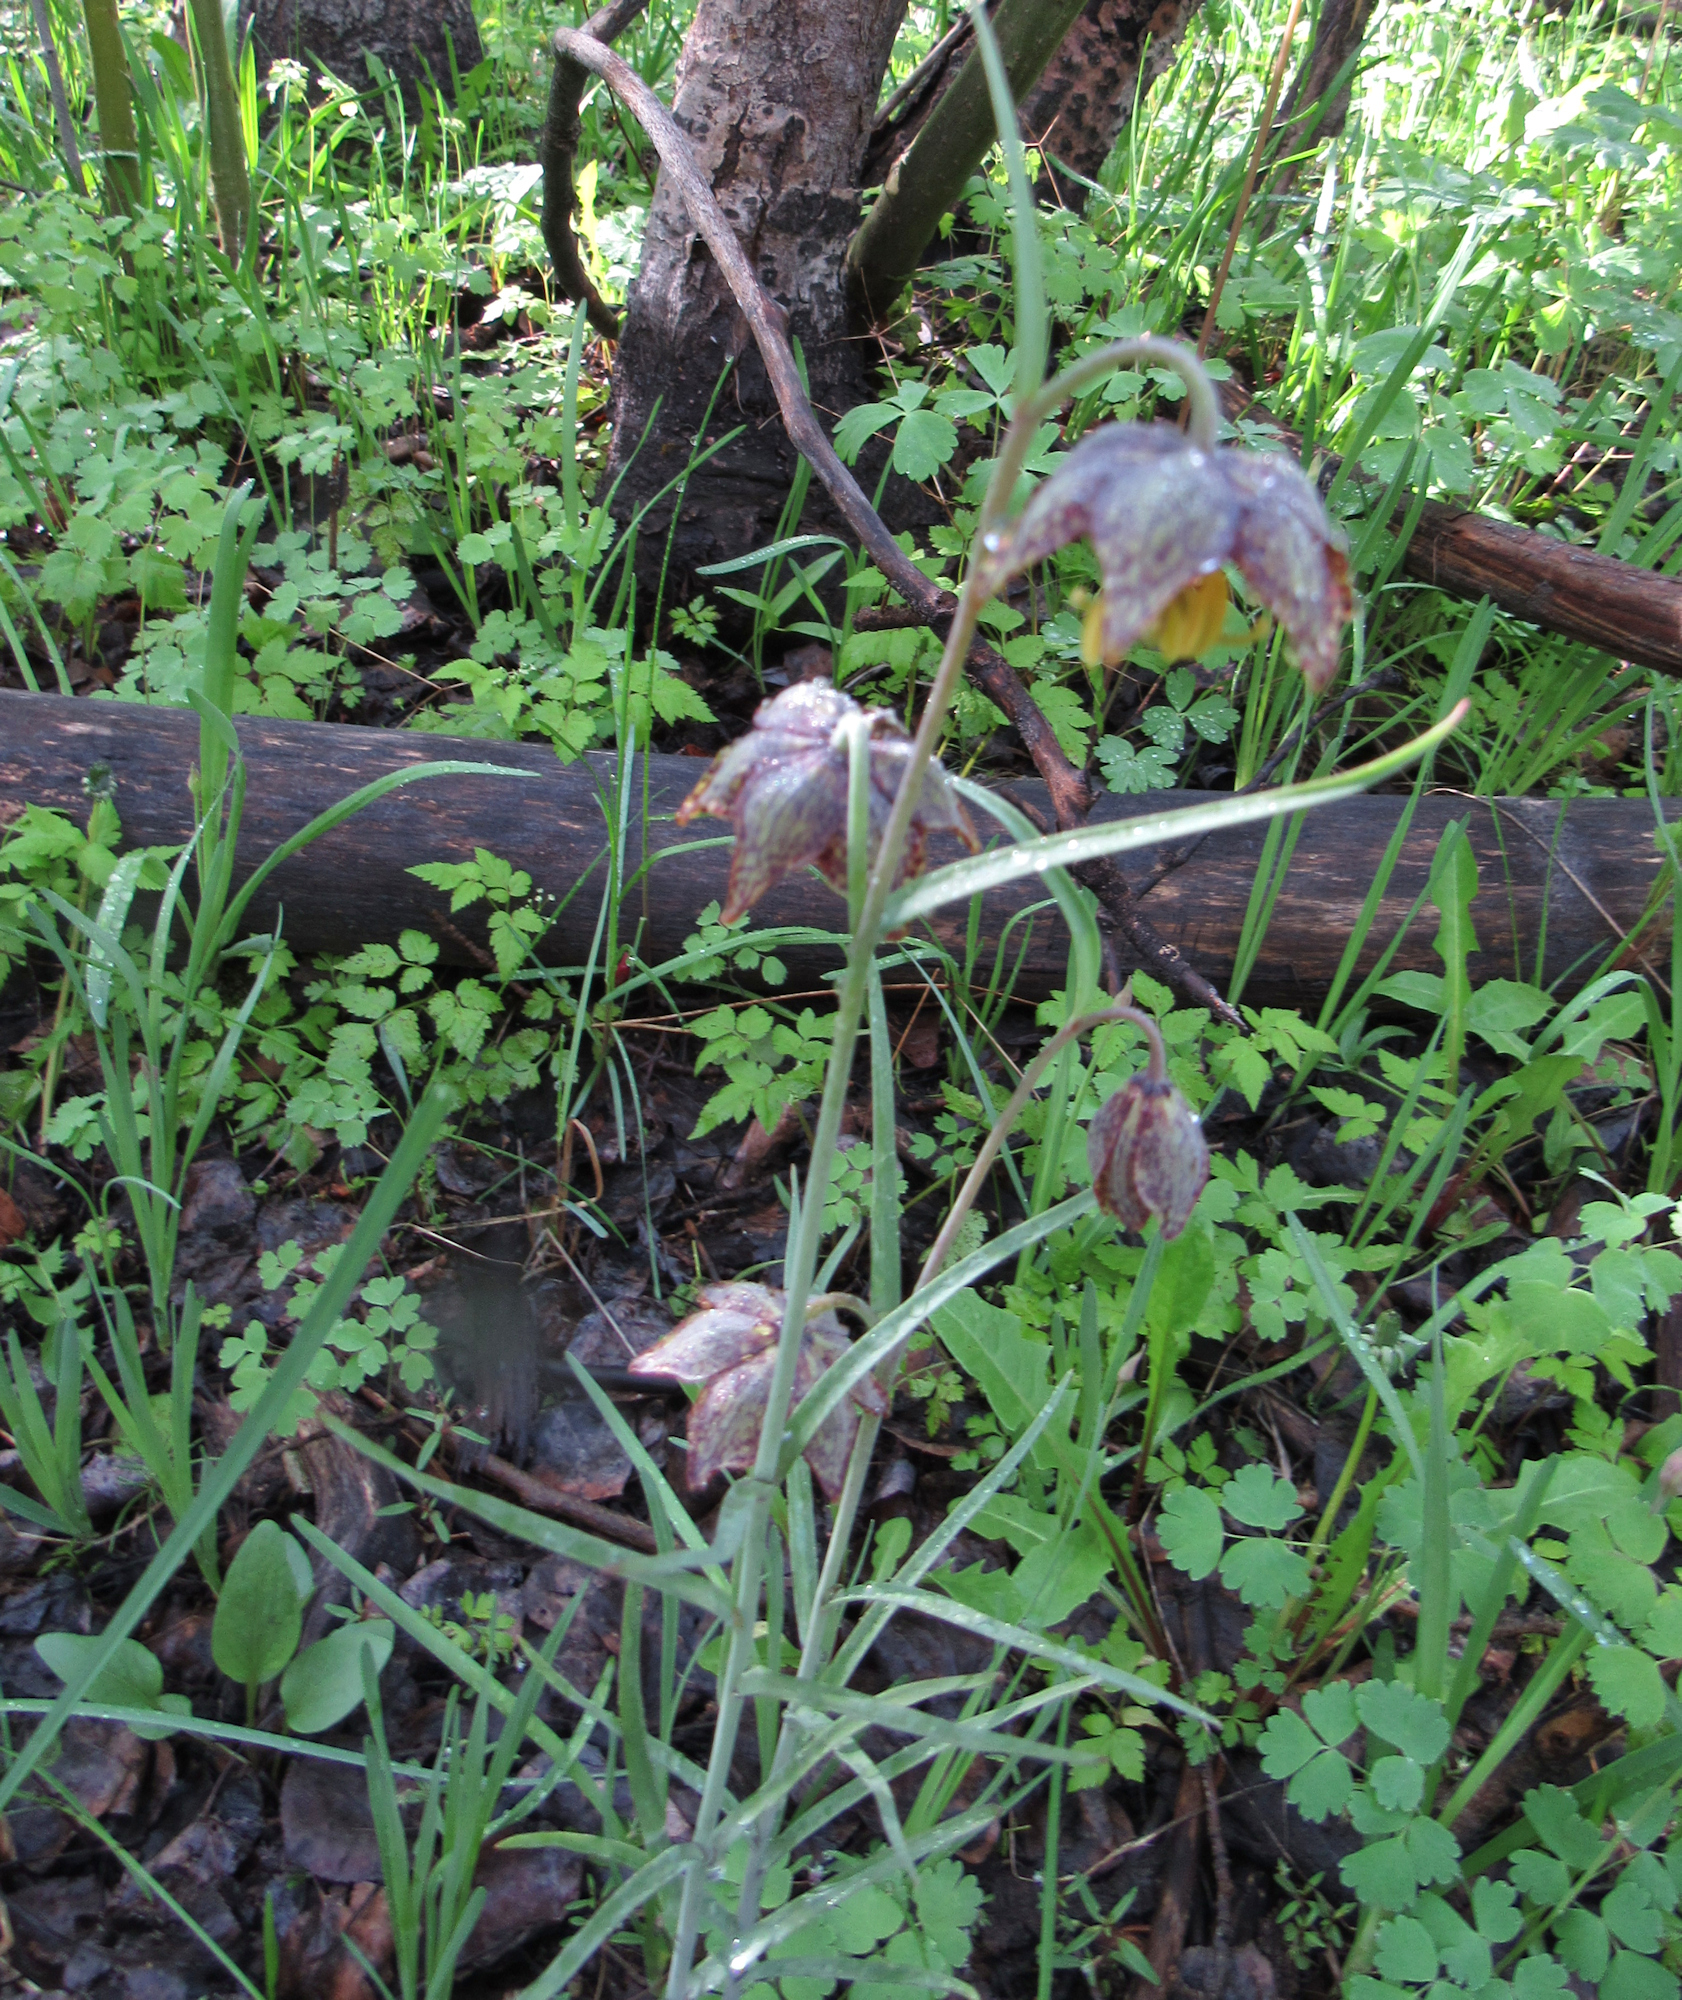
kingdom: Plantae
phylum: Tracheophyta
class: Liliopsida
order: Liliales
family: Liliaceae
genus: Fritillaria
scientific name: Fritillaria atropurpurea
